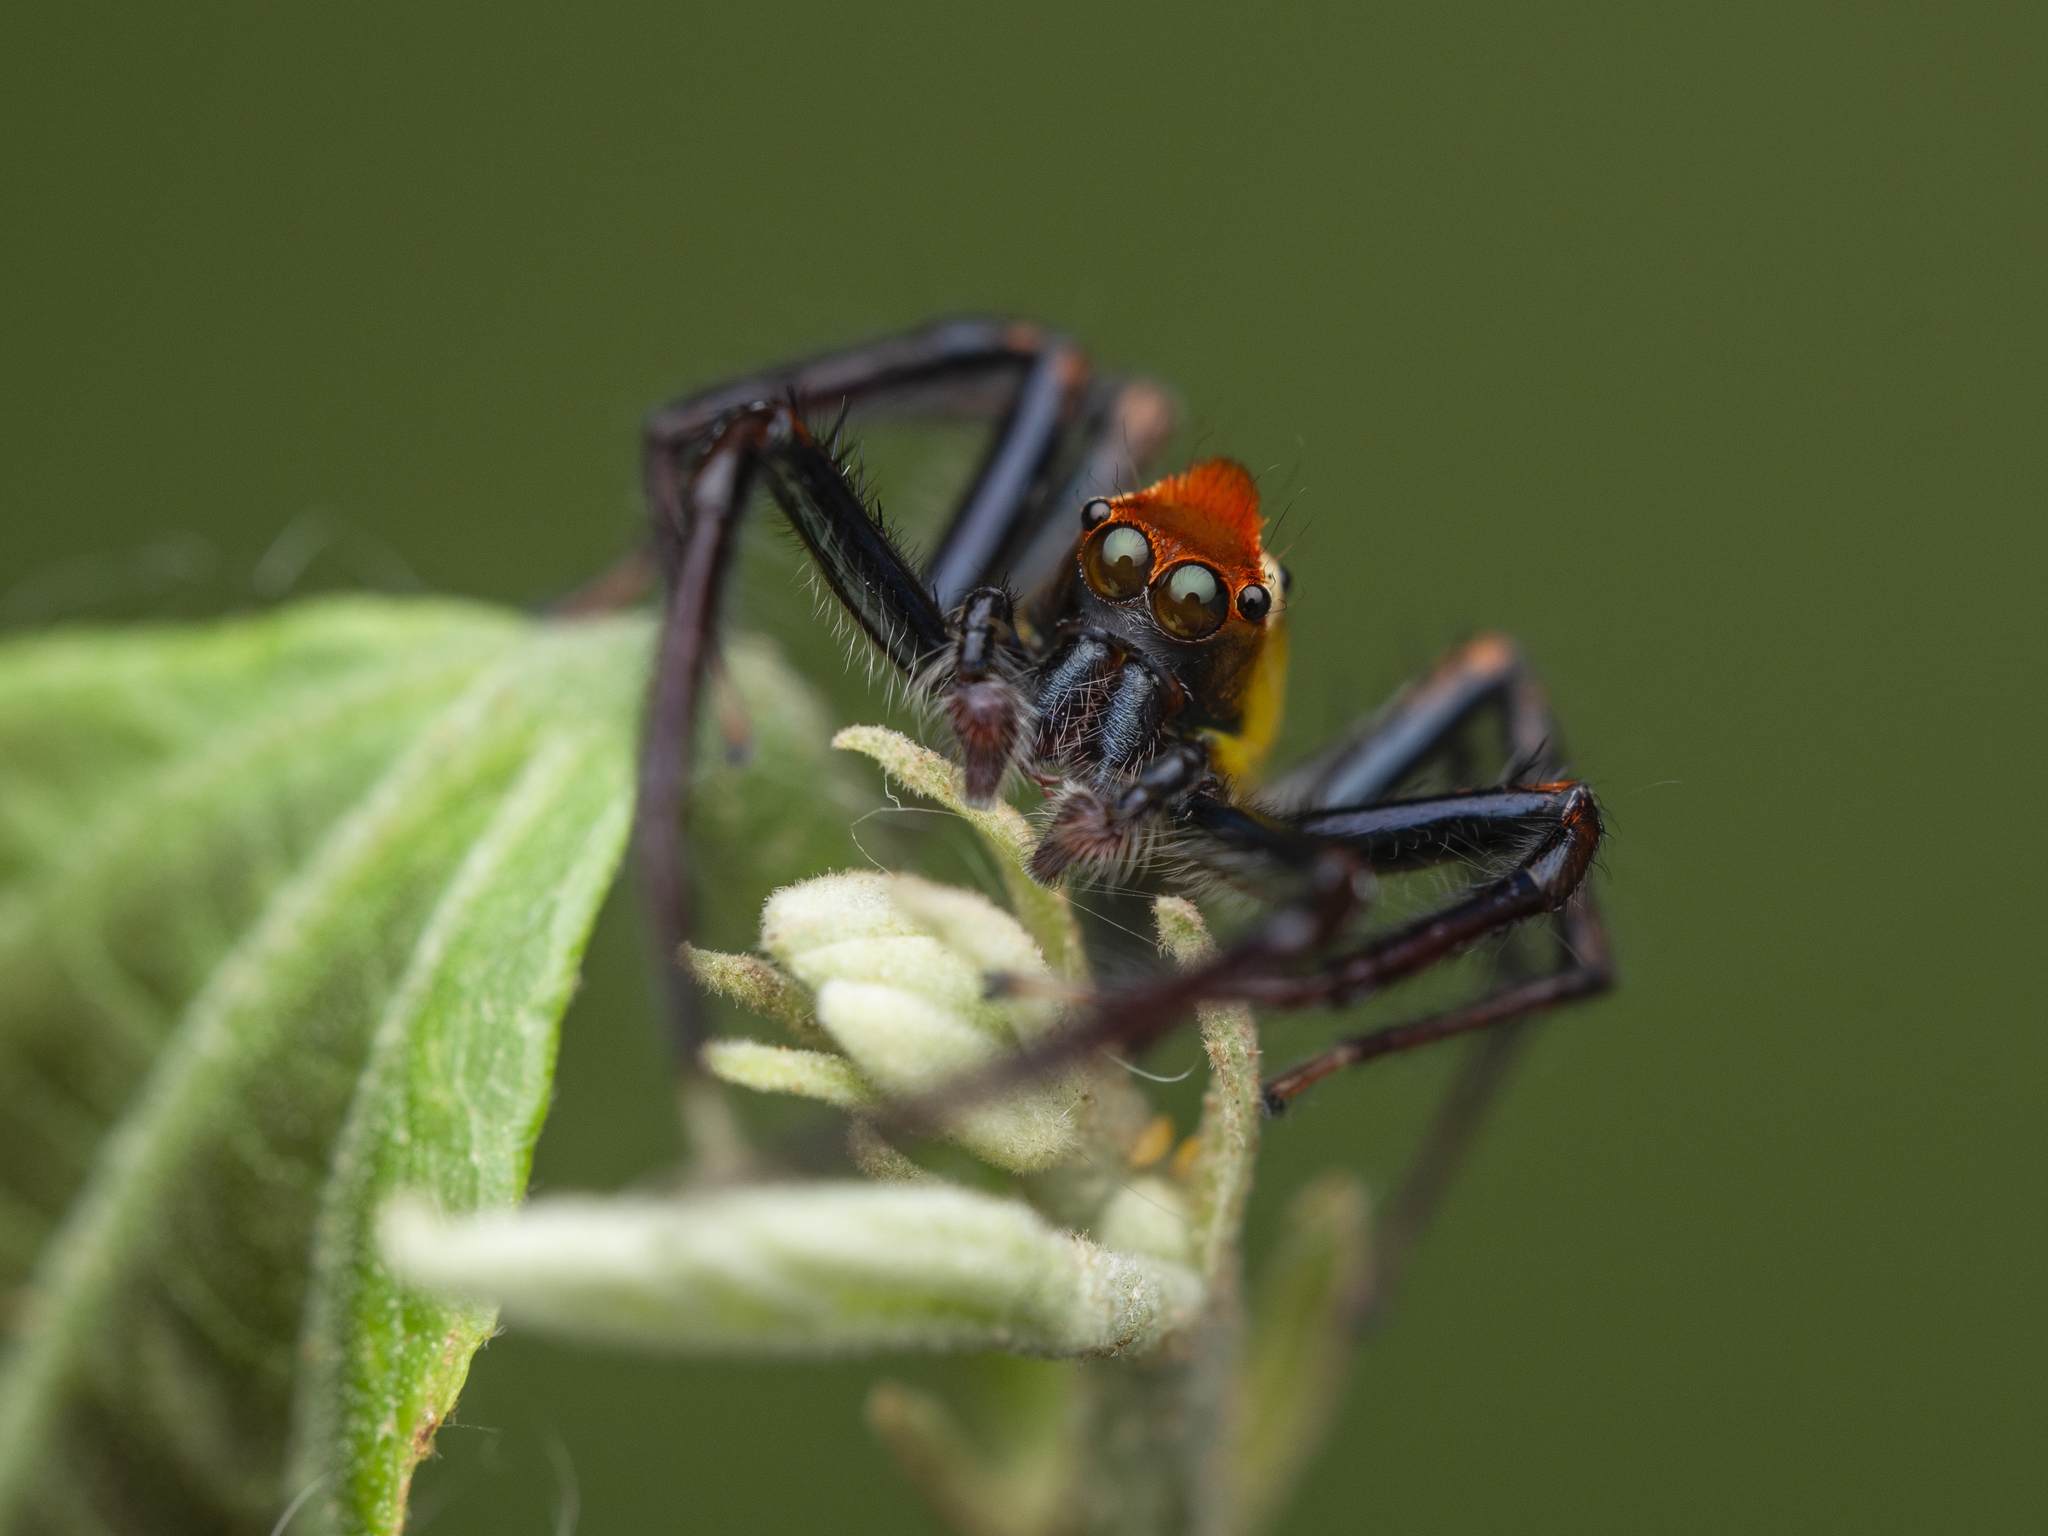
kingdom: Animalia
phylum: Arthropoda
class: Arachnida
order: Araneae
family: Salticidae
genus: Epeus
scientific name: Epeus glorius
